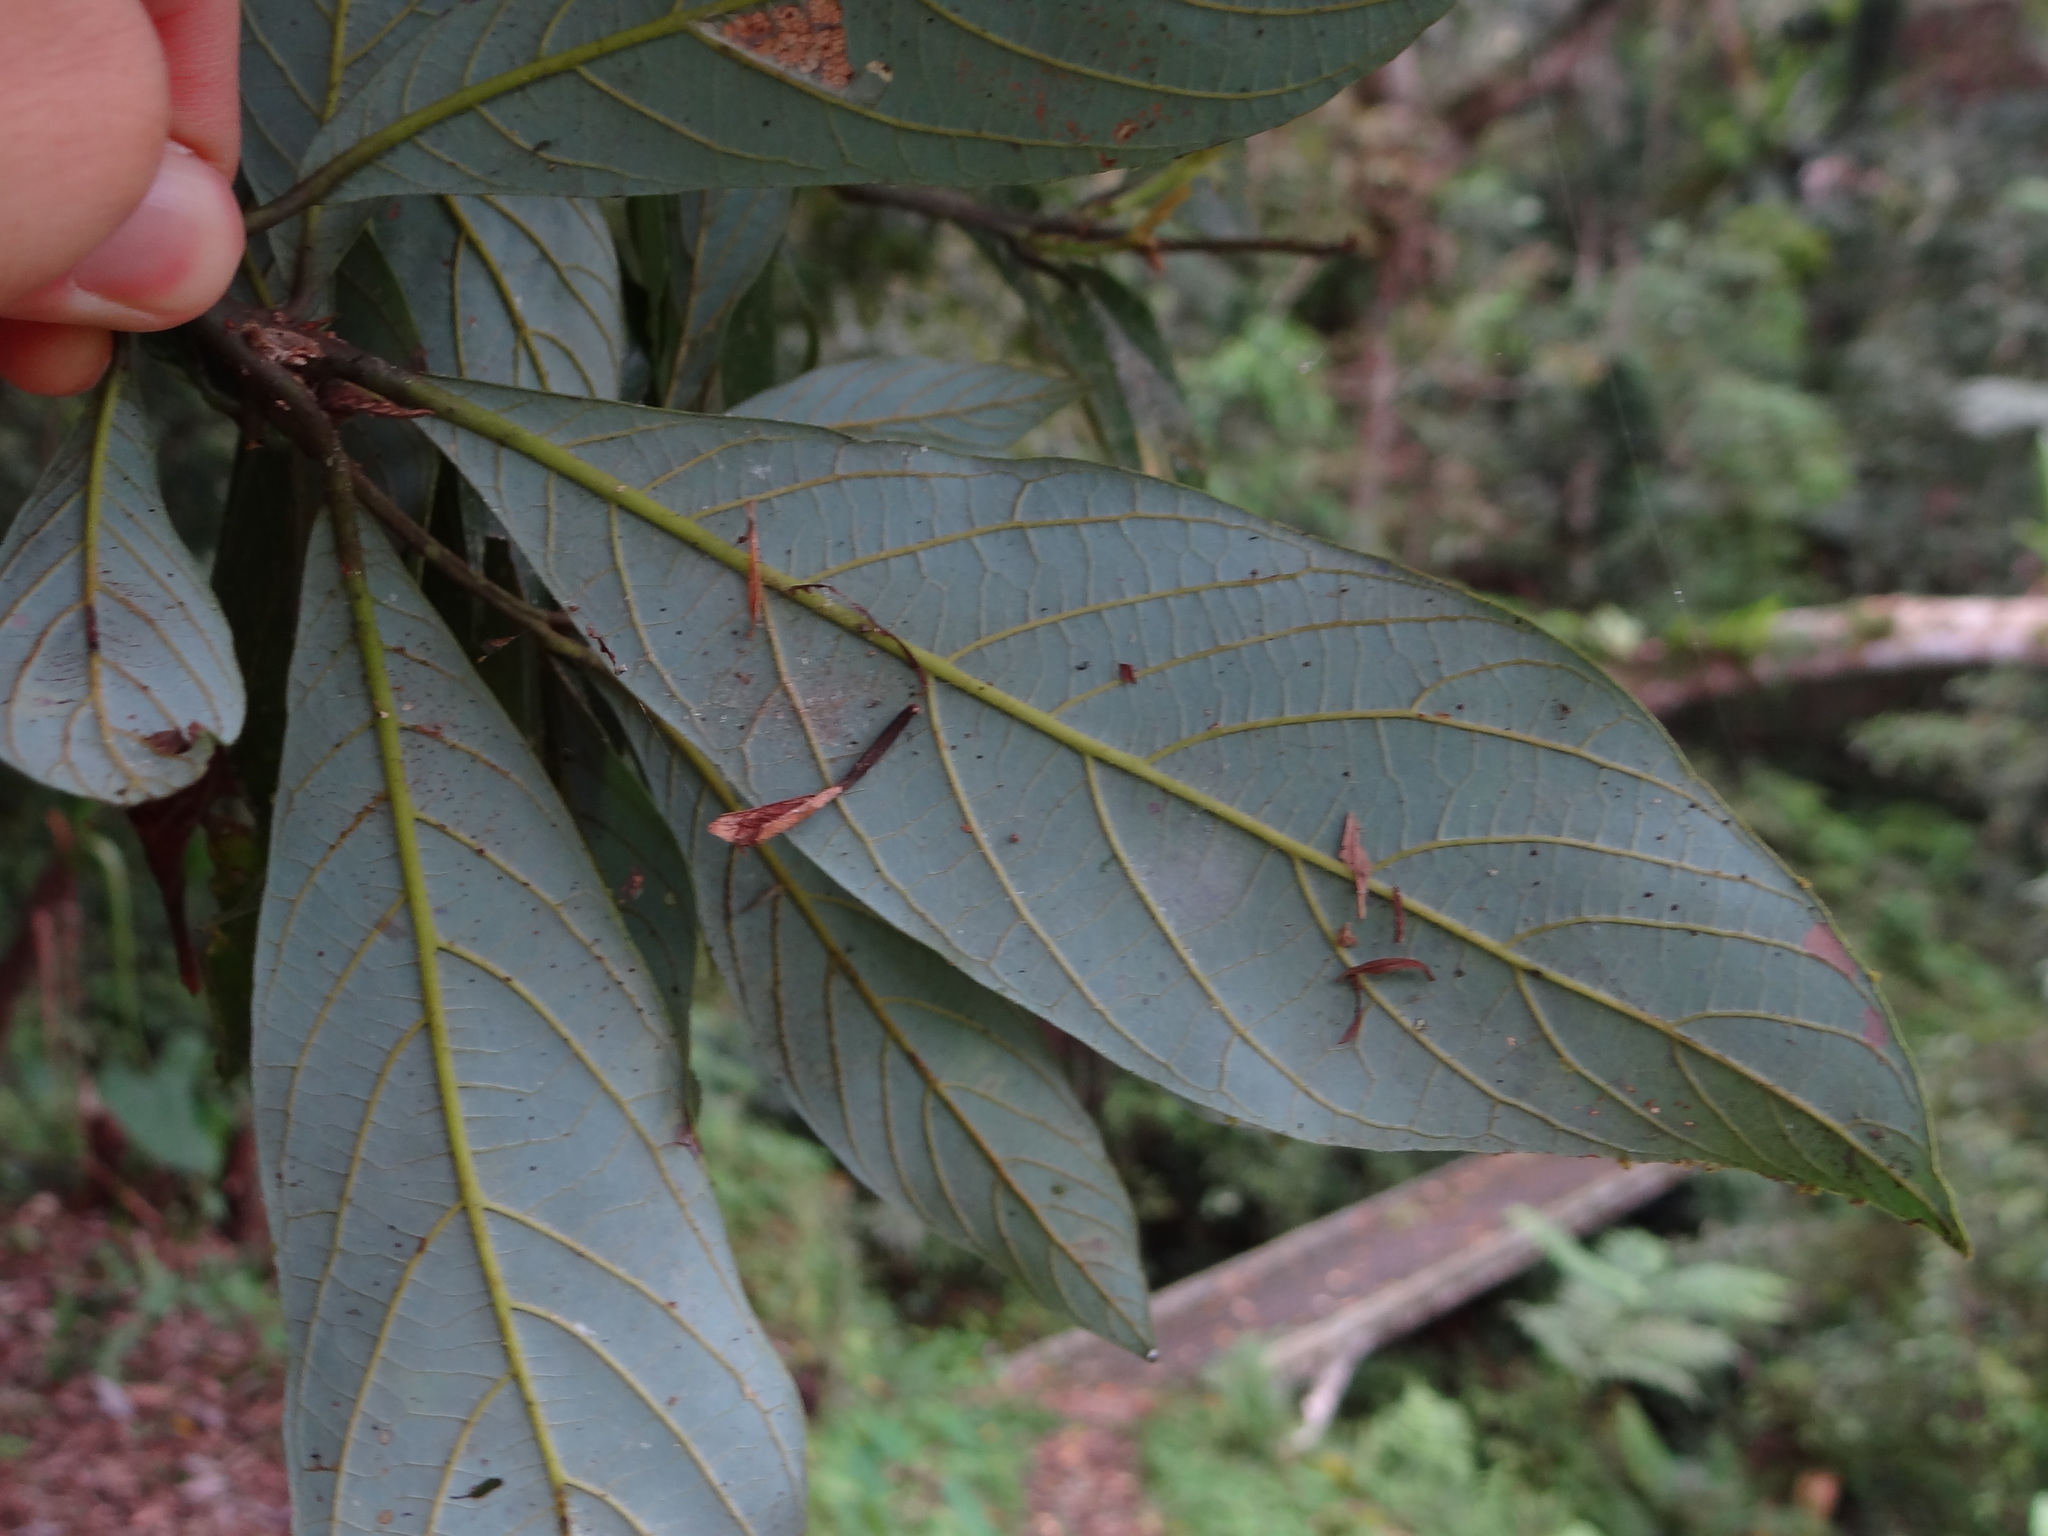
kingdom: Plantae
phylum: Tracheophyta
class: Magnoliopsida
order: Laurales
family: Lauraceae
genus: Phoebe
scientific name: Phoebe formosana
